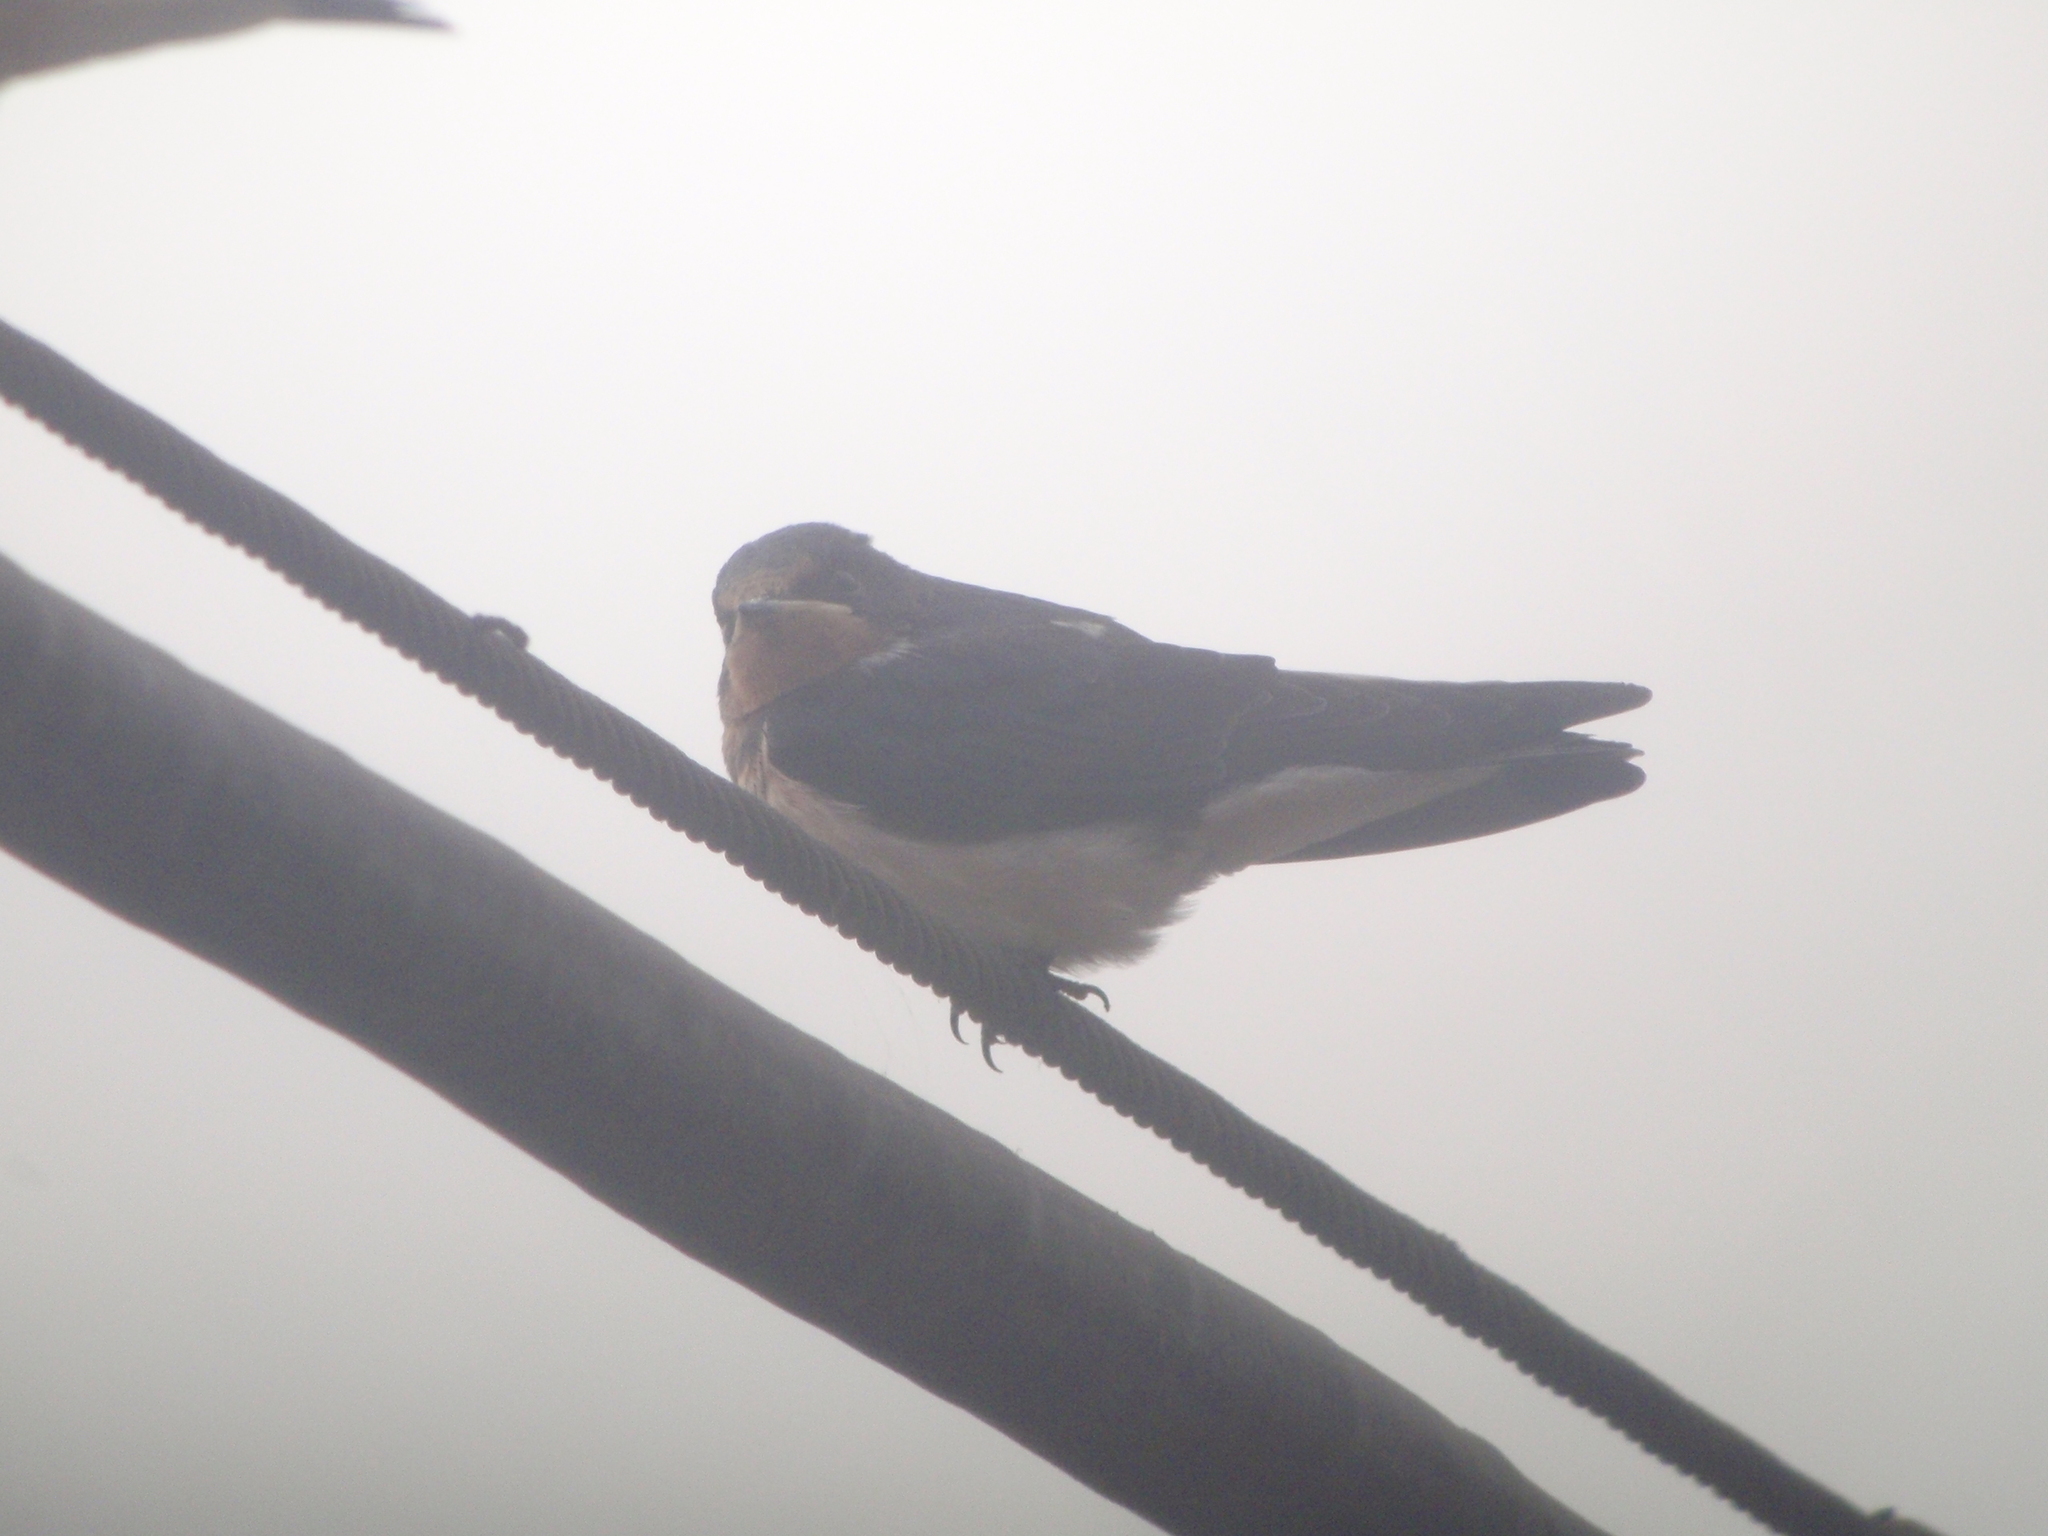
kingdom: Animalia
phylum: Chordata
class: Aves
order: Passeriformes
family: Hirundinidae
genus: Hirundo
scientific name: Hirundo rustica
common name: Barn swallow
